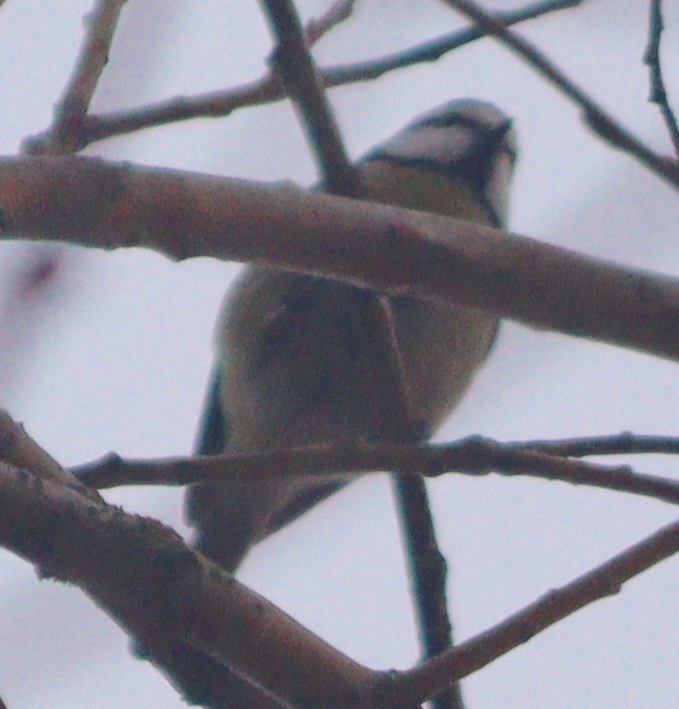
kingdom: Animalia
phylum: Chordata
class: Aves
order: Passeriformes
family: Paridae
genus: Cyanistes
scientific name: Cyanistes caeruleus
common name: Eurasian blue tit
